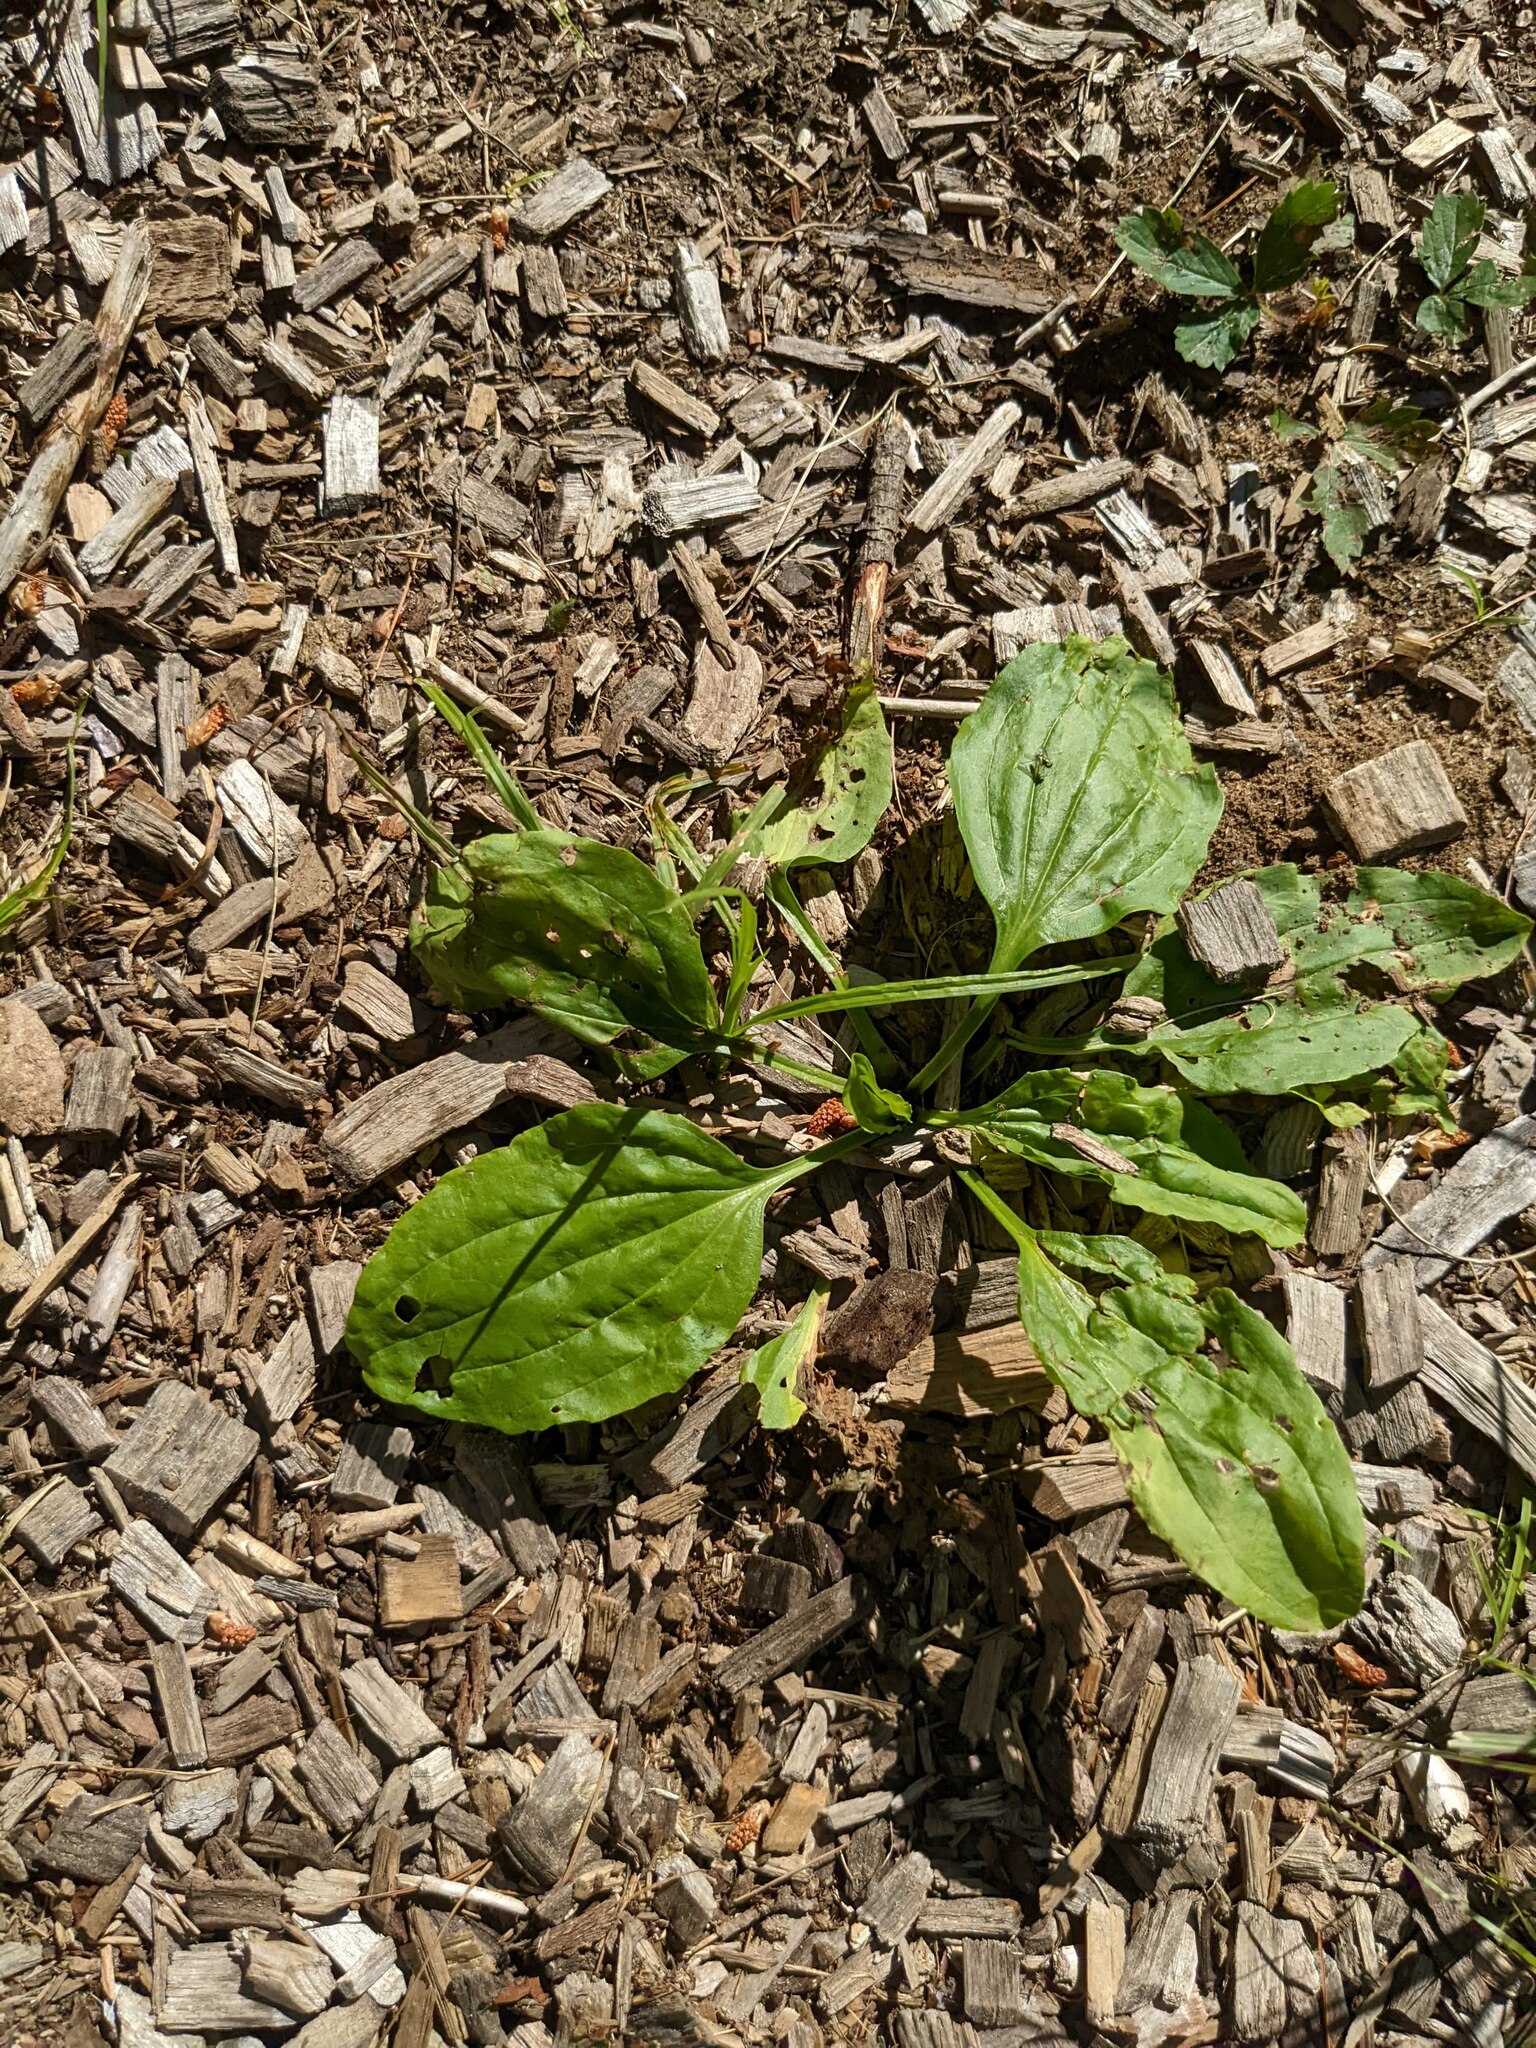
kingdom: Plantae
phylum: Tracheophyta
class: Magnoliopsida
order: Lamiales
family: Plantaginaceae
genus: Plantago
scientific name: Plantago rugelii
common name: American plantain
